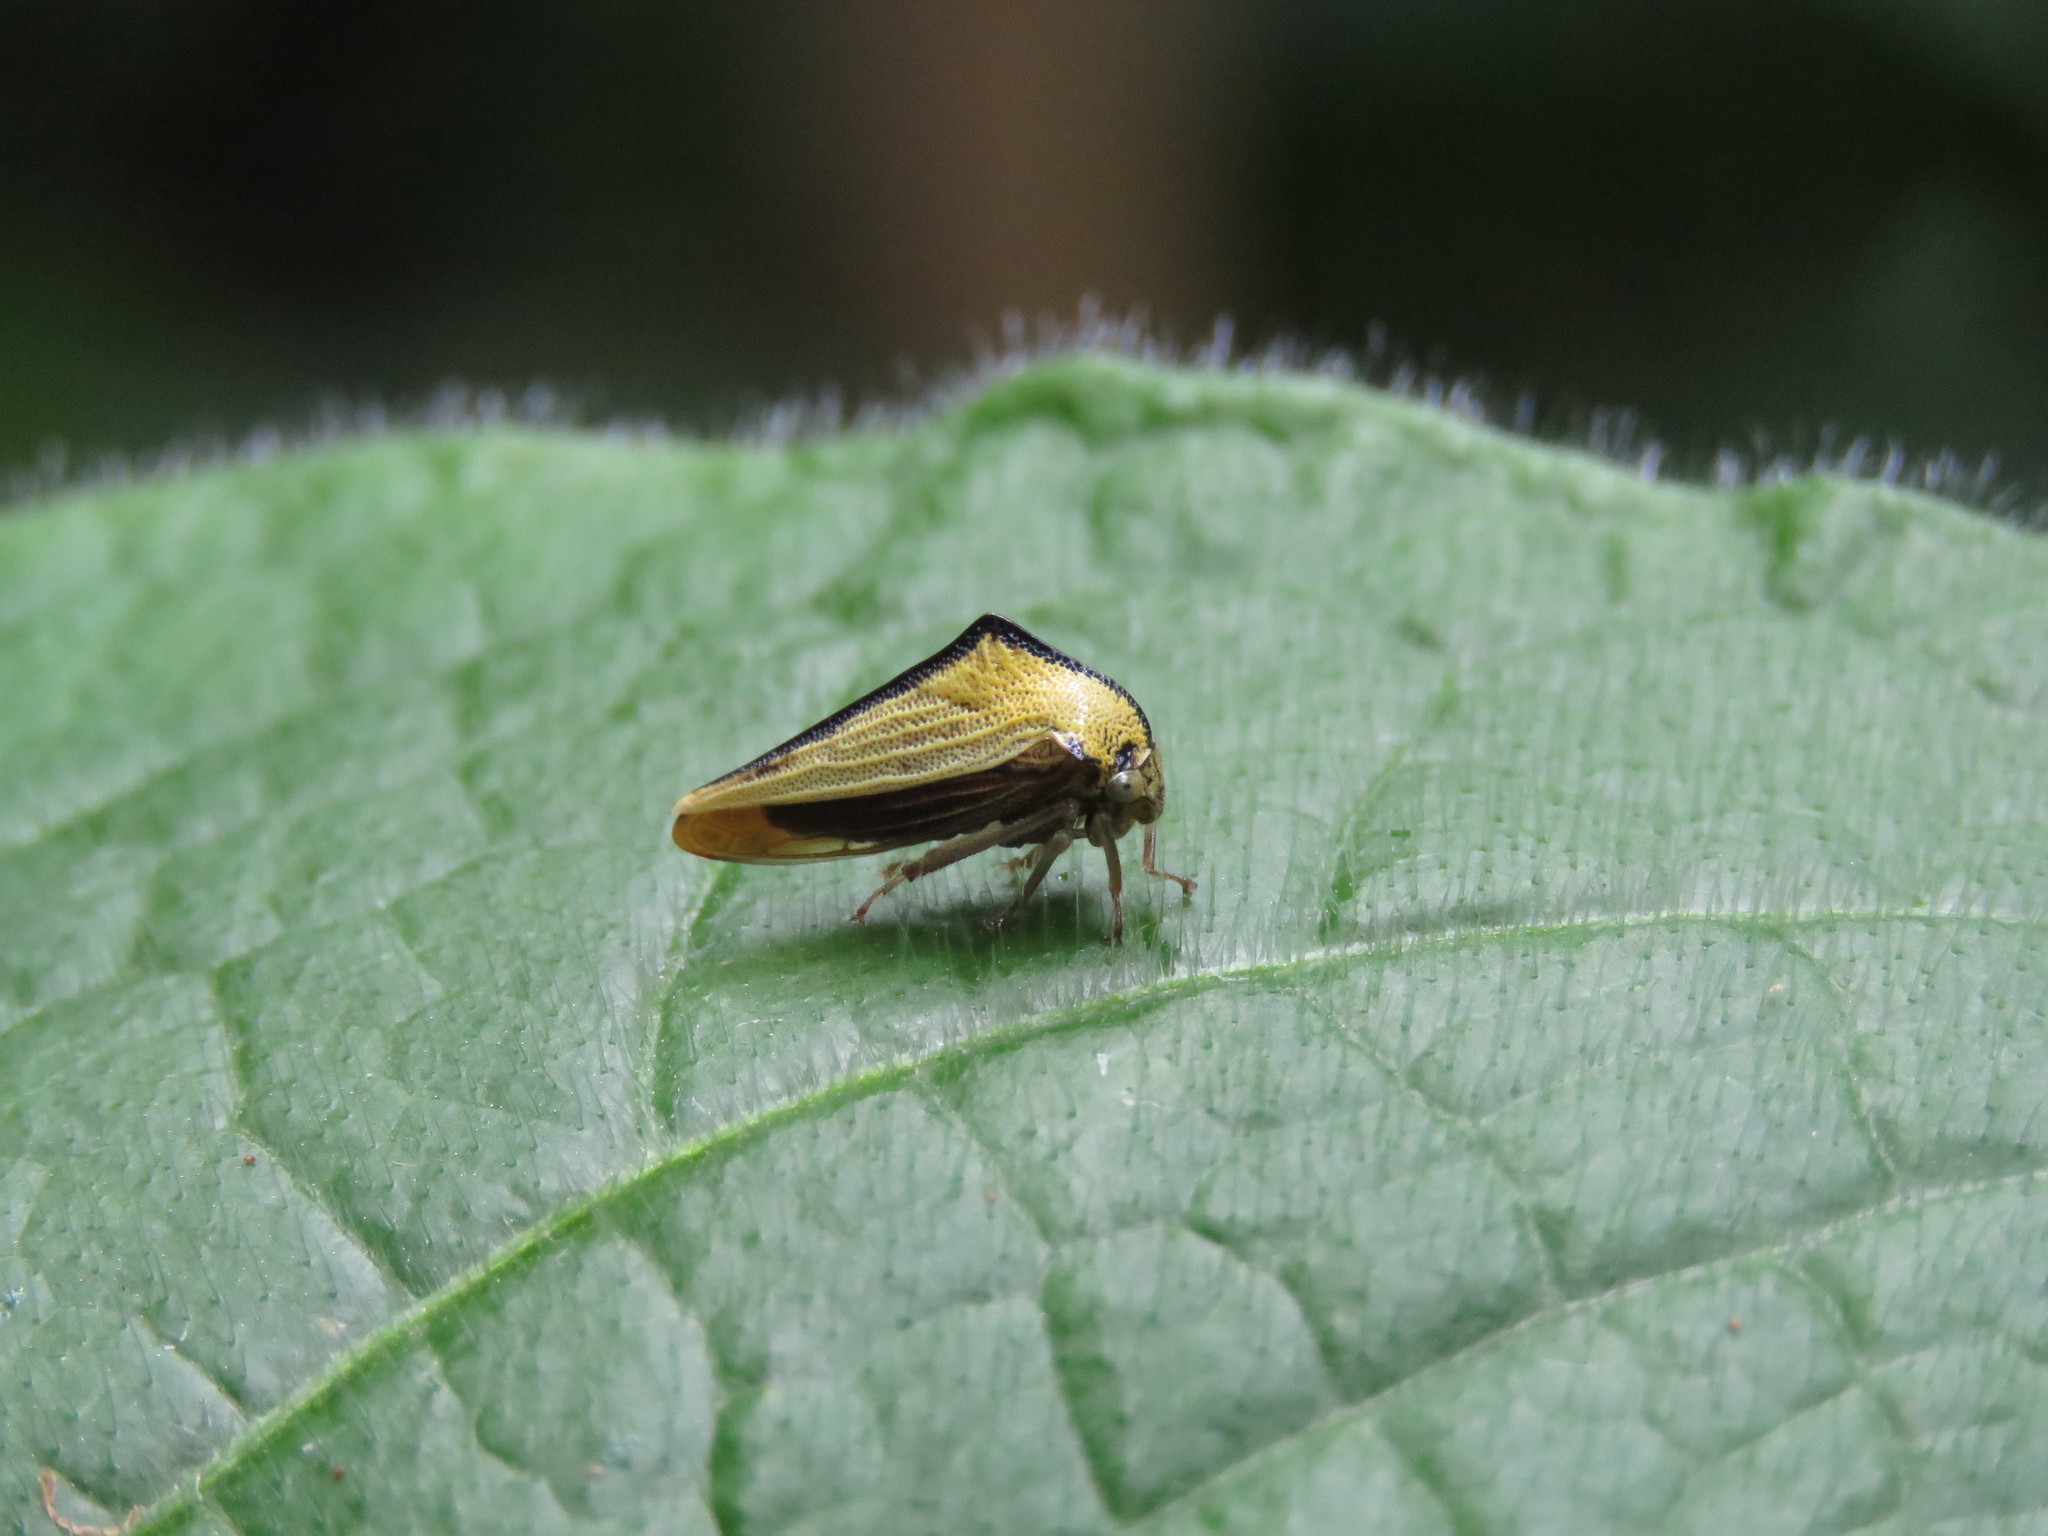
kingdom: Animalia
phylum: Arthropoda
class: Insecta
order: Hemiptera
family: Membracidae
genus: Ennya
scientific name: Ennya sobria
